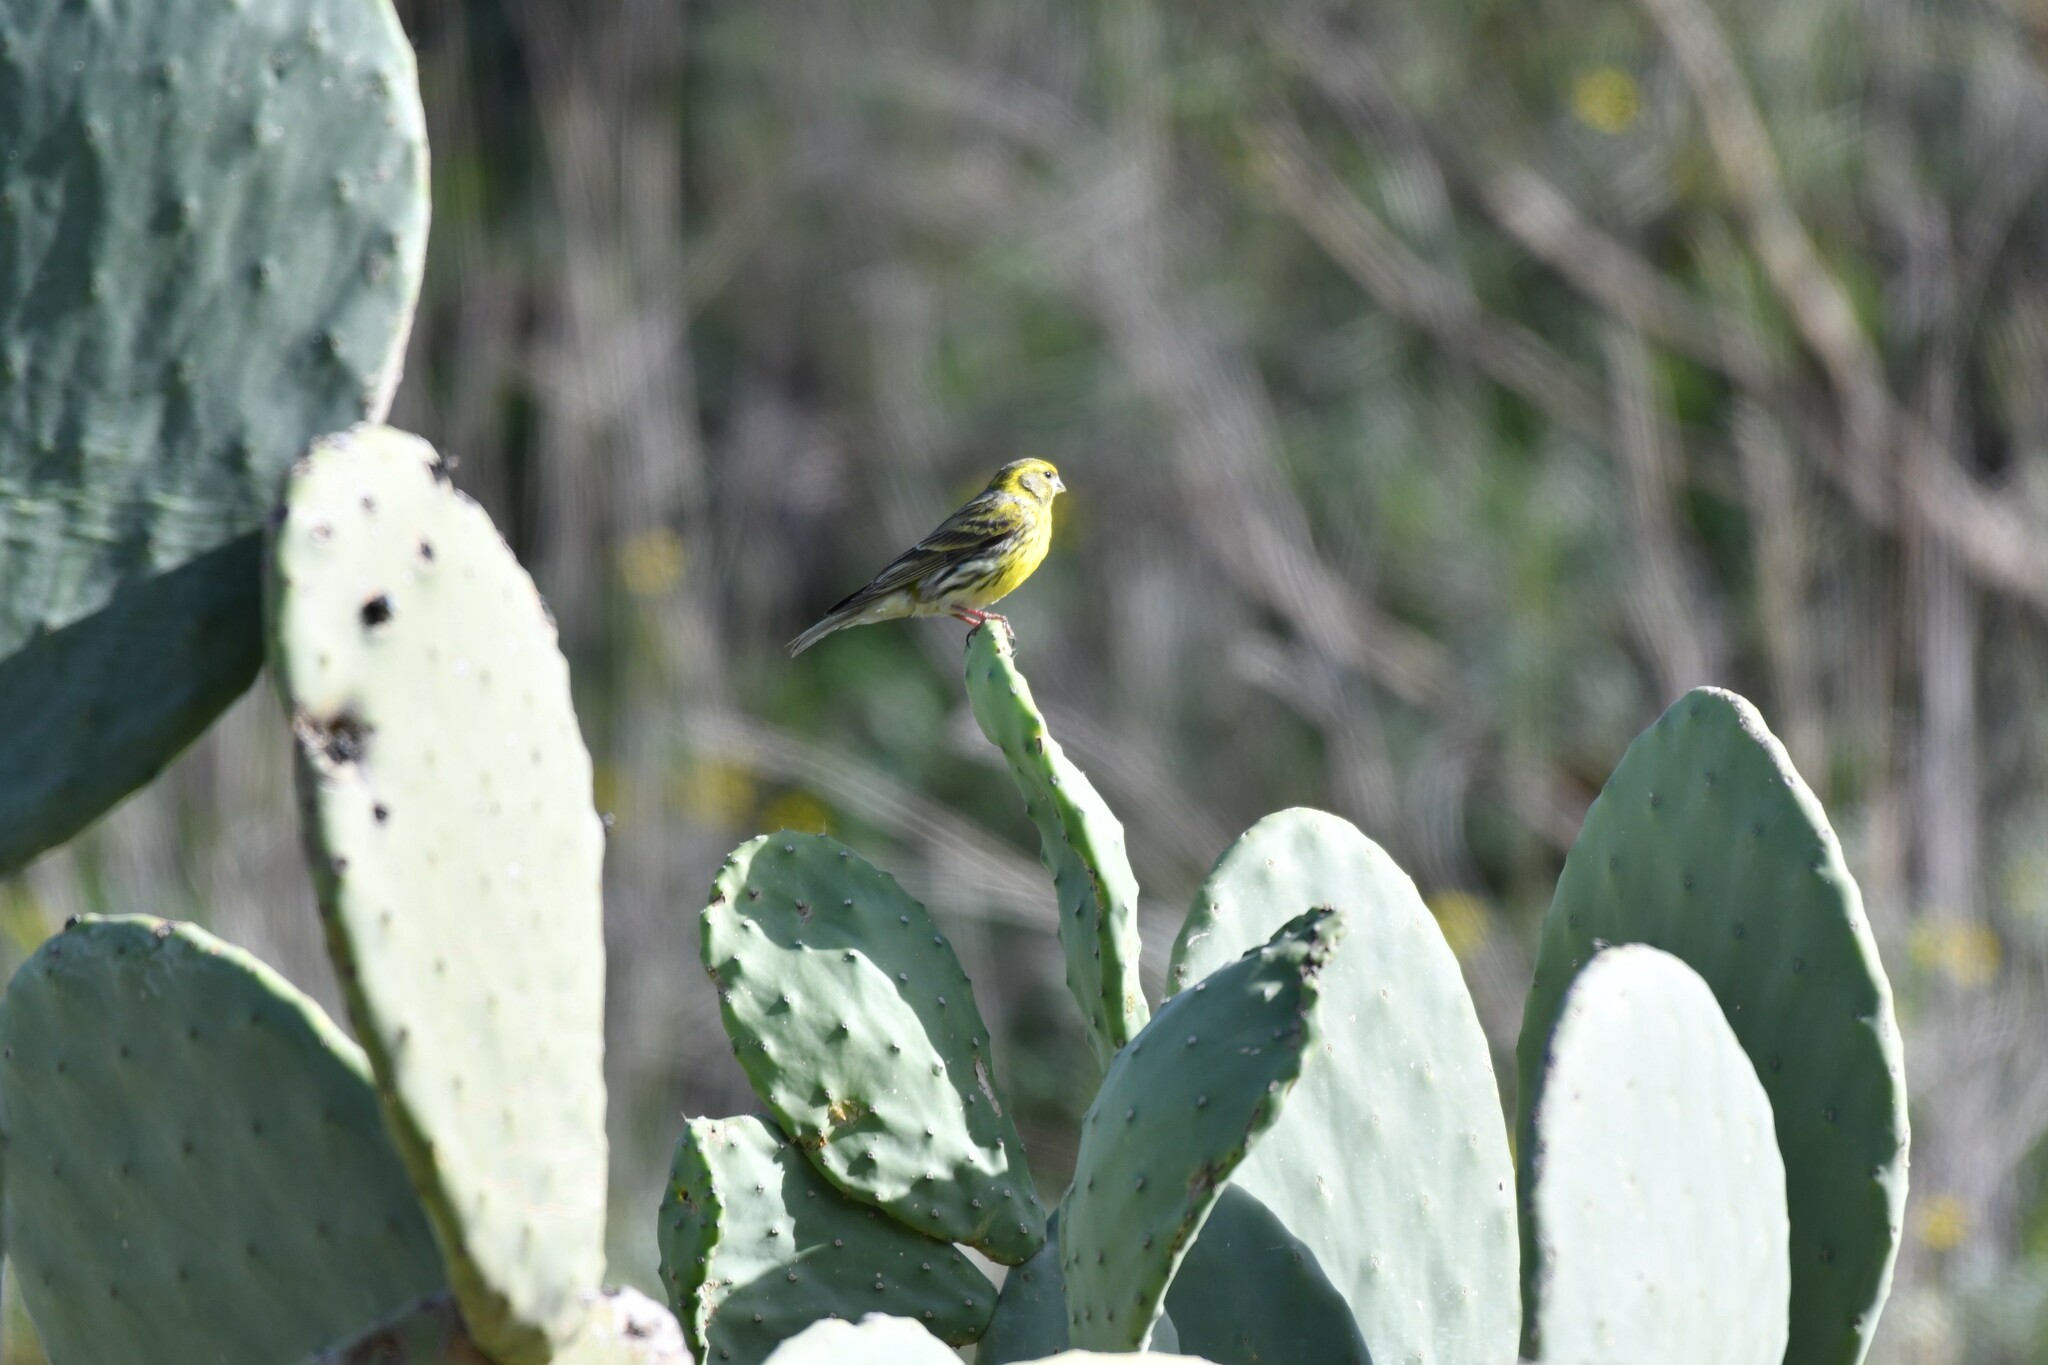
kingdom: Animalia
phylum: Chordata
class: Aves
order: Passeriformes
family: Fringillidae
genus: Serinus
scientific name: Serinus serinus
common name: European serin
